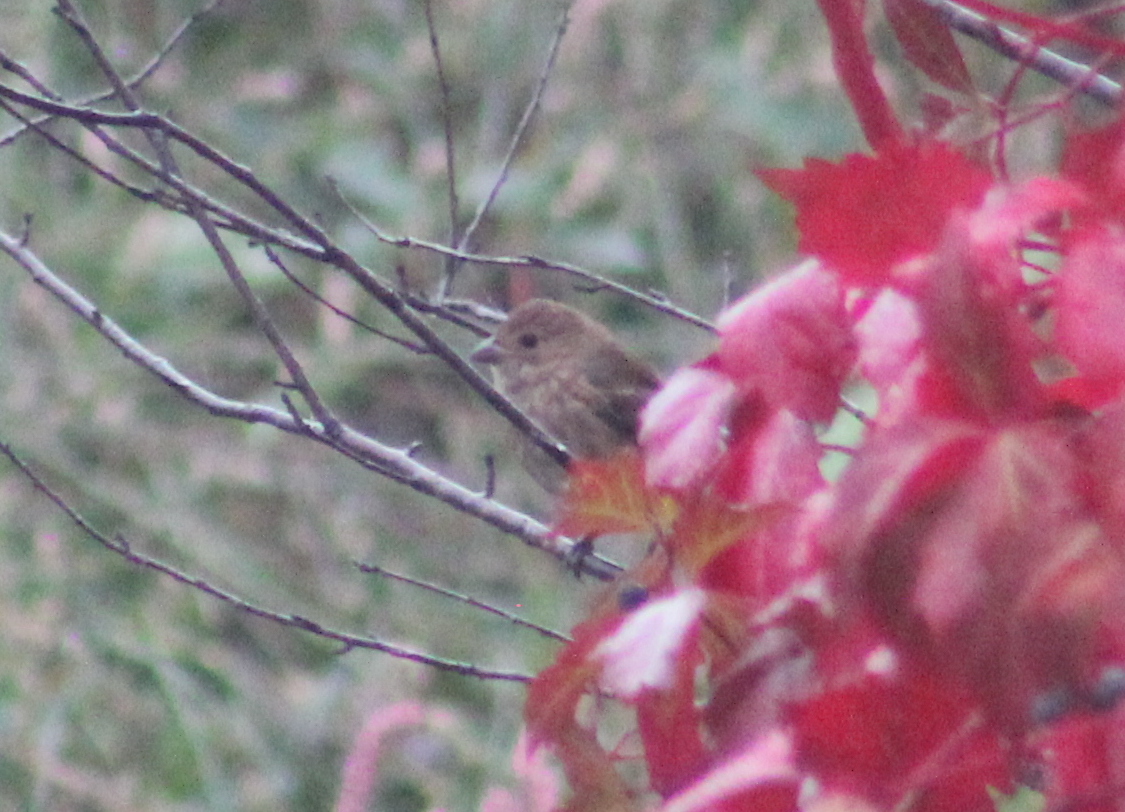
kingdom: Animalia
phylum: Chordata
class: Aves
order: Passeriformes
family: Cardinalidae
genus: Passerina
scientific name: Passerina cyanea
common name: Indigo bunting
